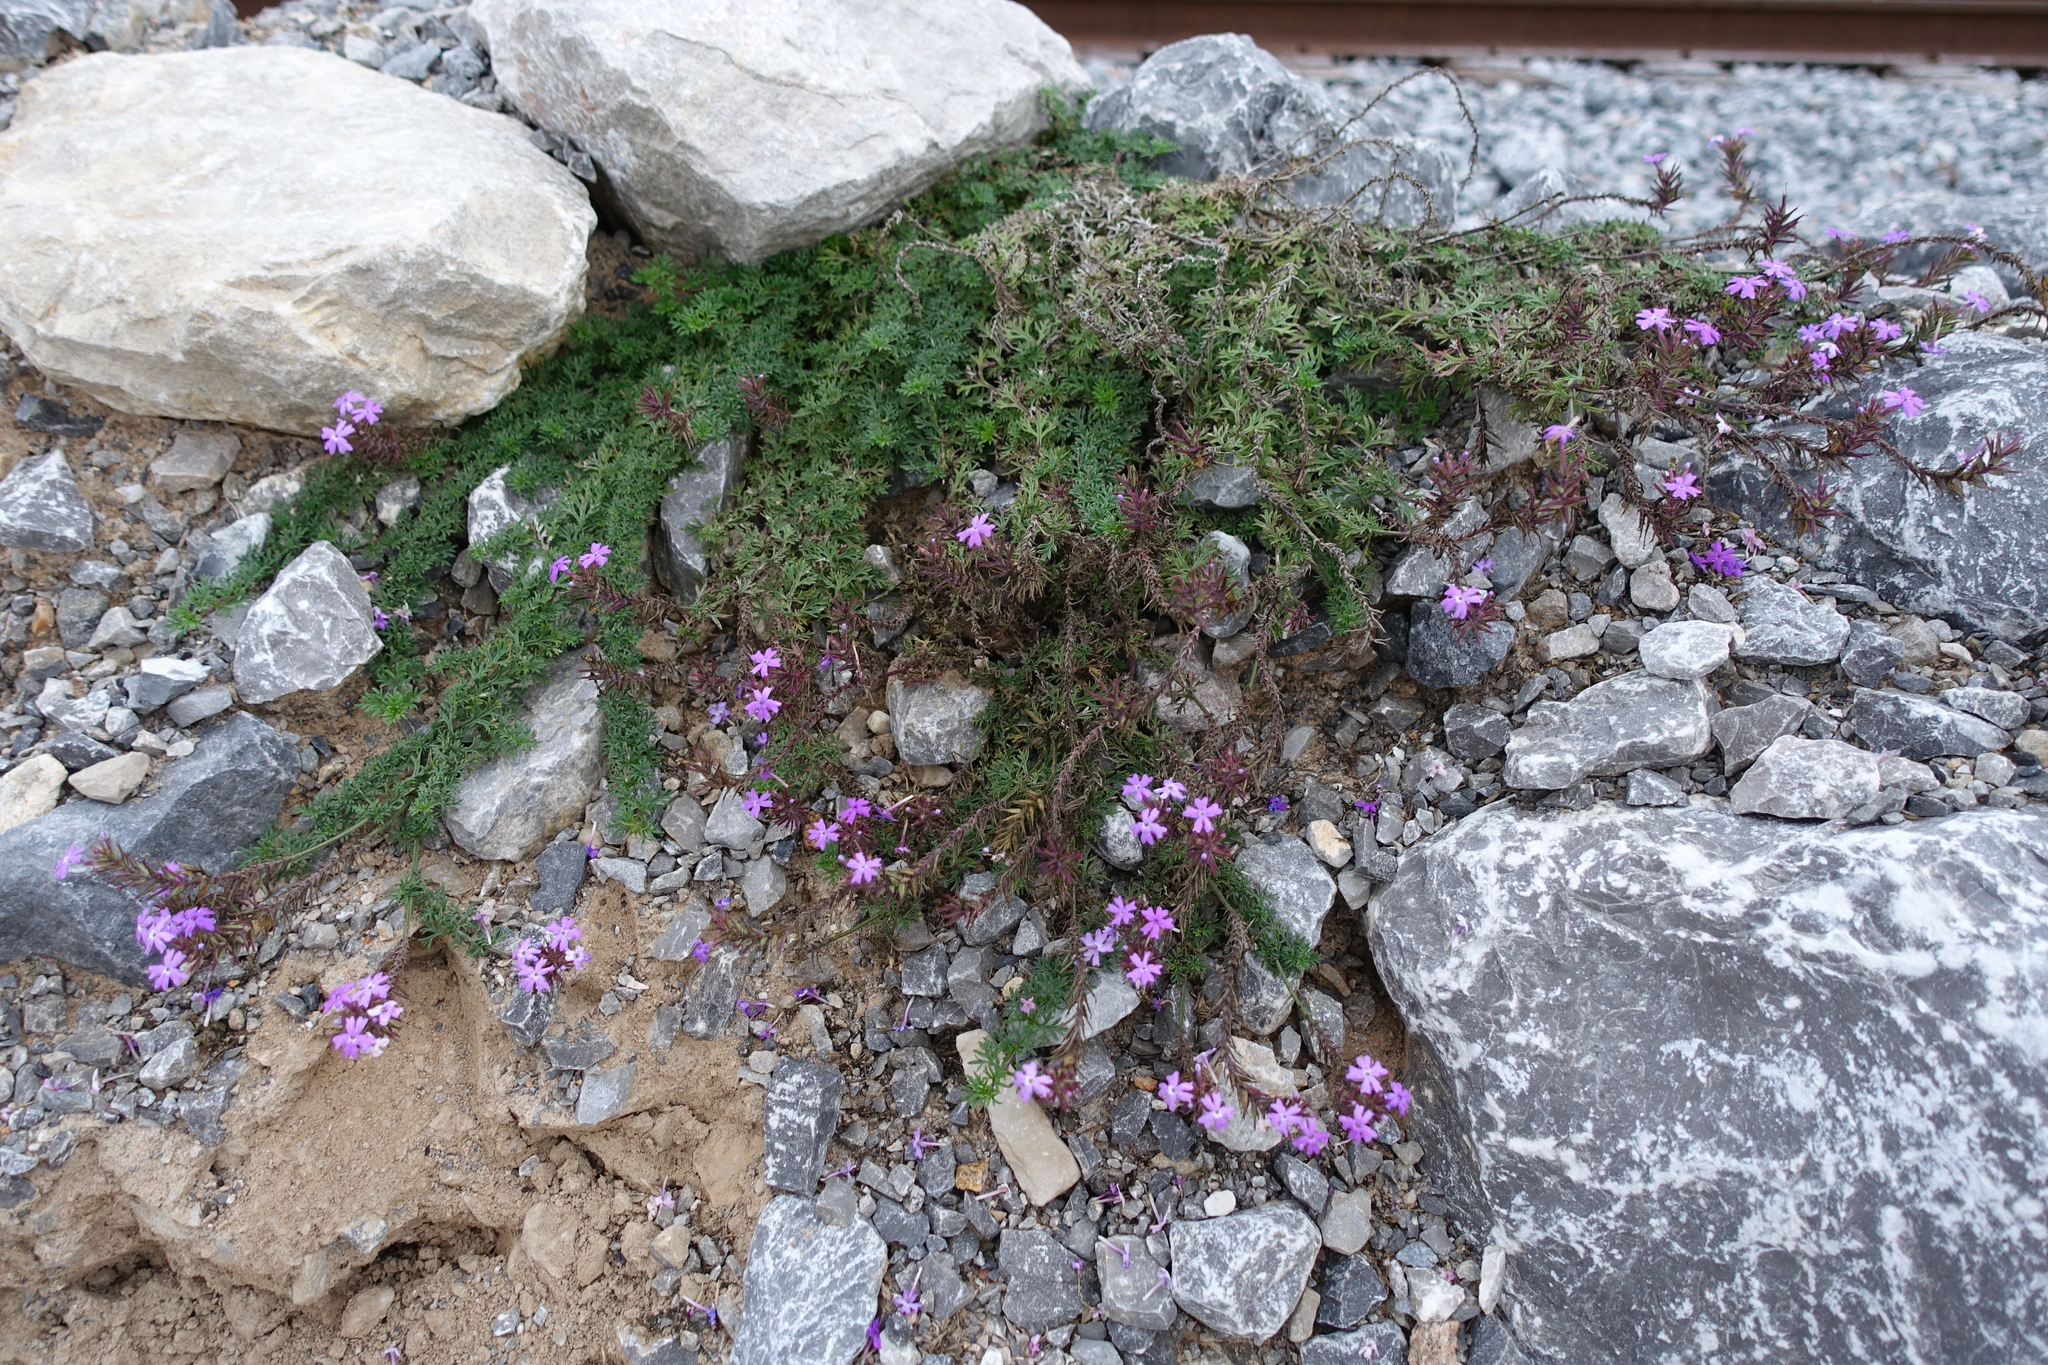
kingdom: Plantae
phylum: Tracheophyta
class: Magnoliopsida
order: Lamiales
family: Verbenaceae
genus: Verbena
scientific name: Verbena aristigera
